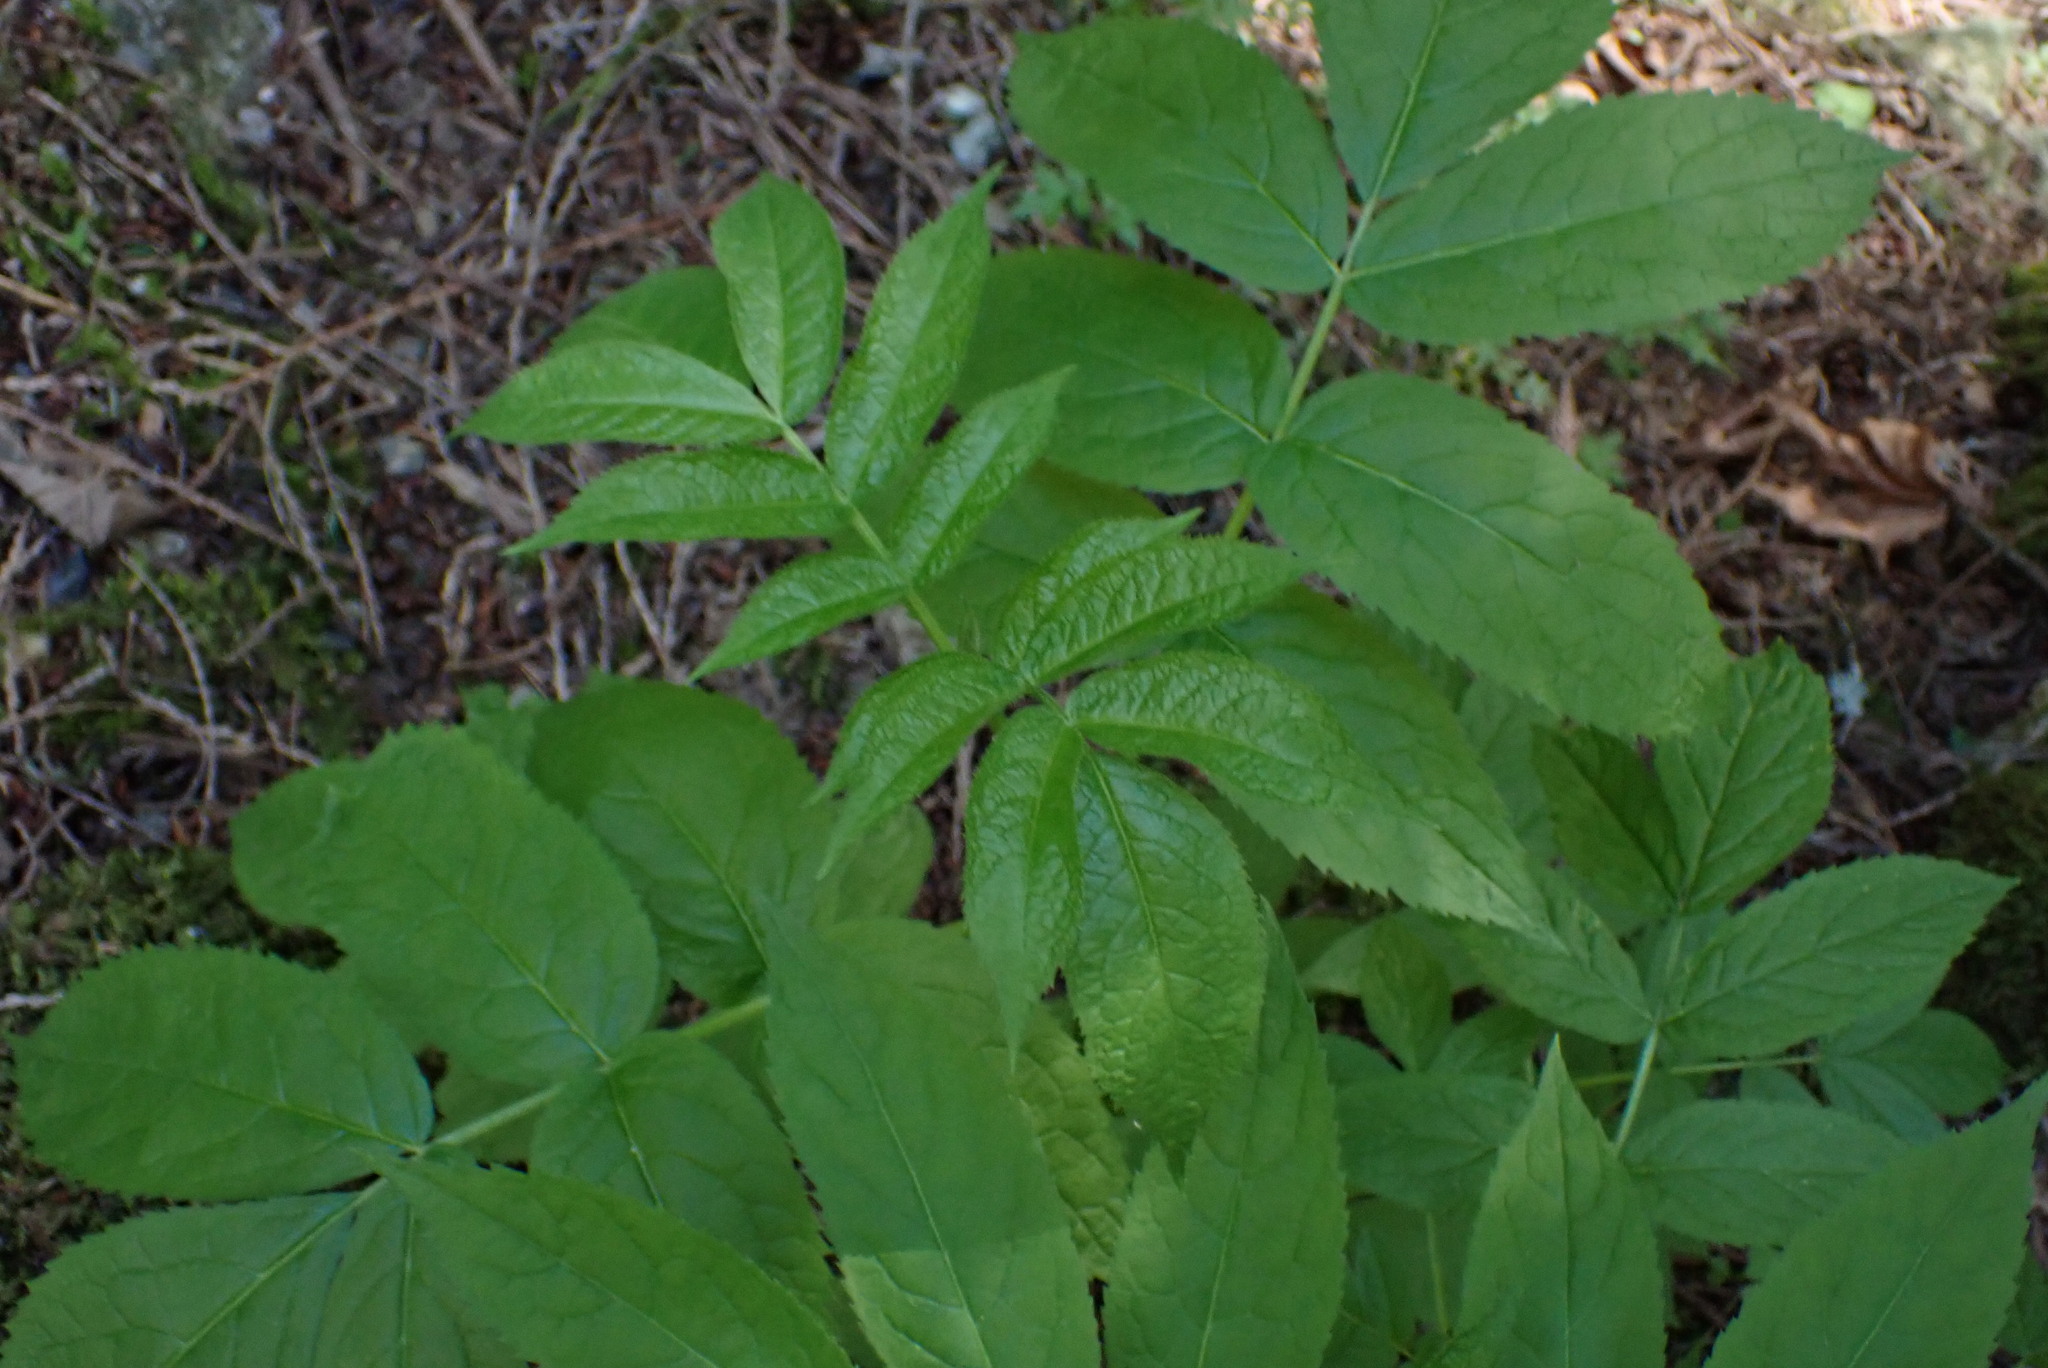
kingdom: Plantae
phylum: Tracheophyta
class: Magnoliopsida
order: Dipsacales
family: Viburnaceae
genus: Sambucus
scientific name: Sambucus racemosa
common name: Red-berried elder
